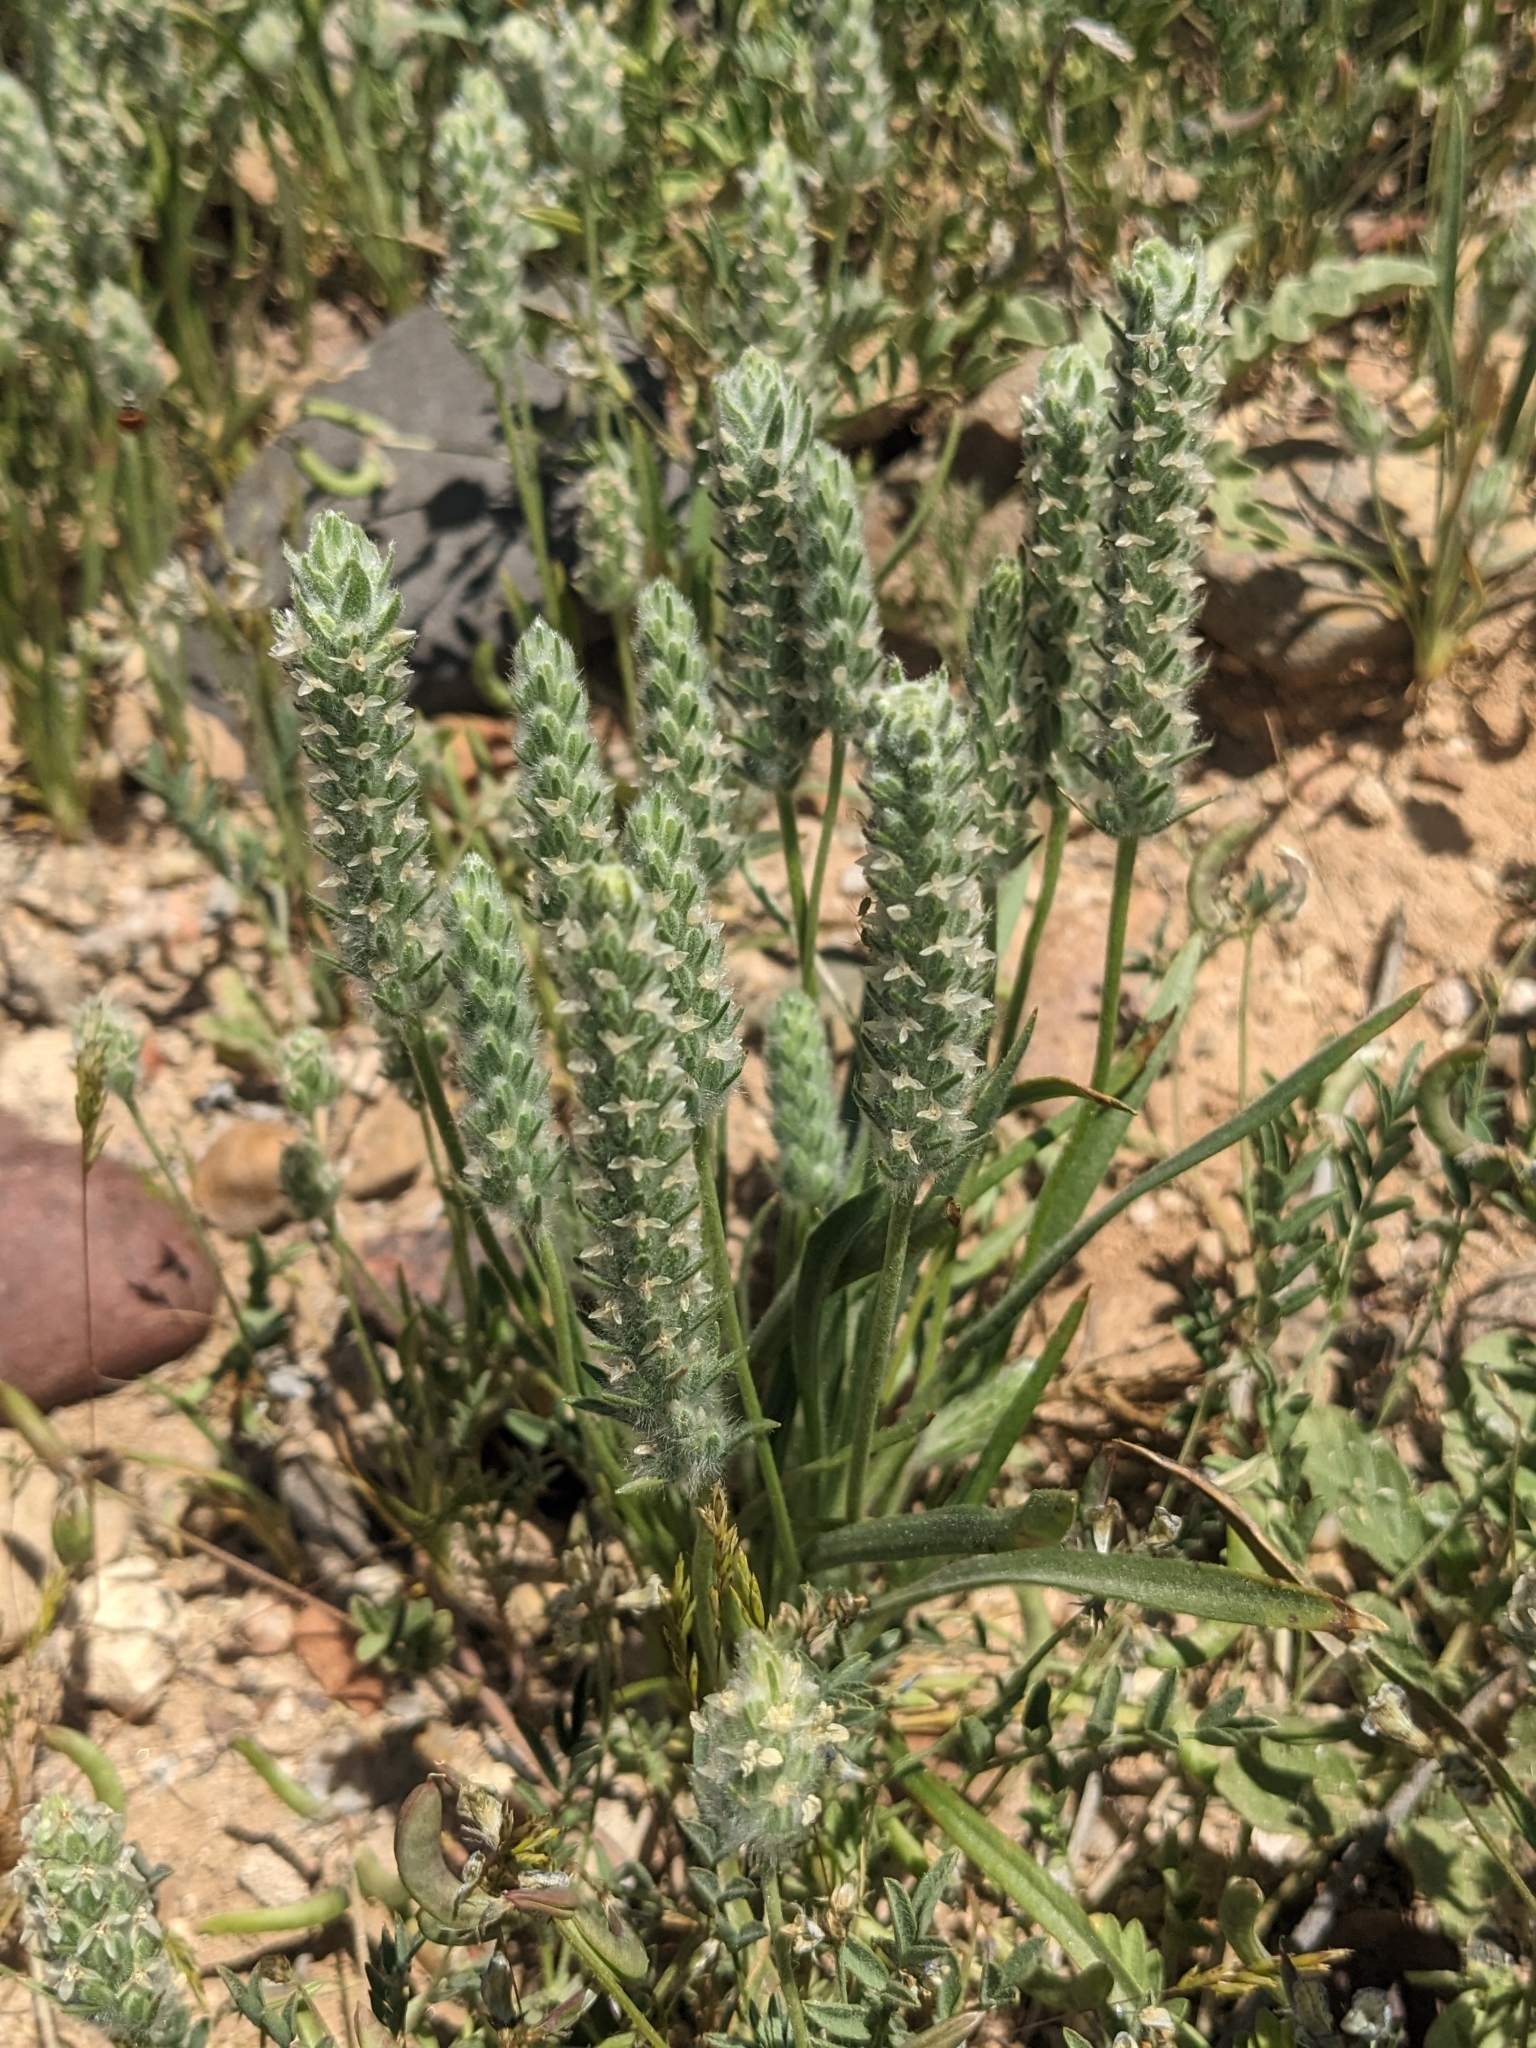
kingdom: Plantae
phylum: Tracheophyta
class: Magnoliopsida
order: Lamiales
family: Plantaginaceae
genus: Plantago
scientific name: Plantago patagonica
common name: Patagonia indian-wheat
